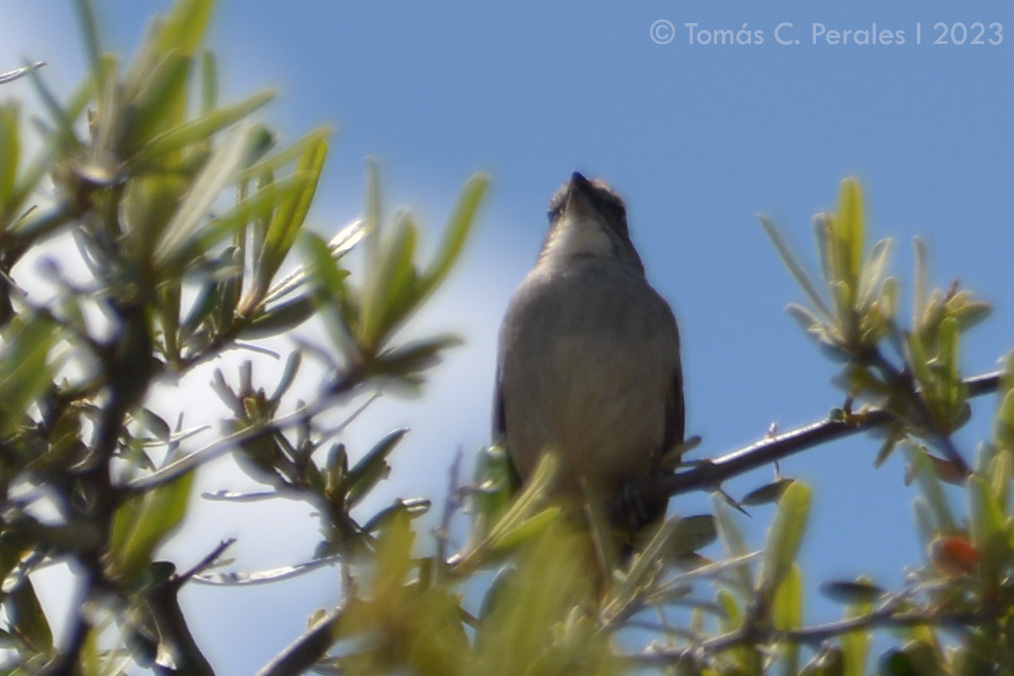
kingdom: Animalia
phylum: Chordata
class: Aves
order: Passeriformes
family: Passerellidae
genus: Rhynchospiza
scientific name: Rhynchospiza strigiceps
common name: Stripe-capped sparrow
